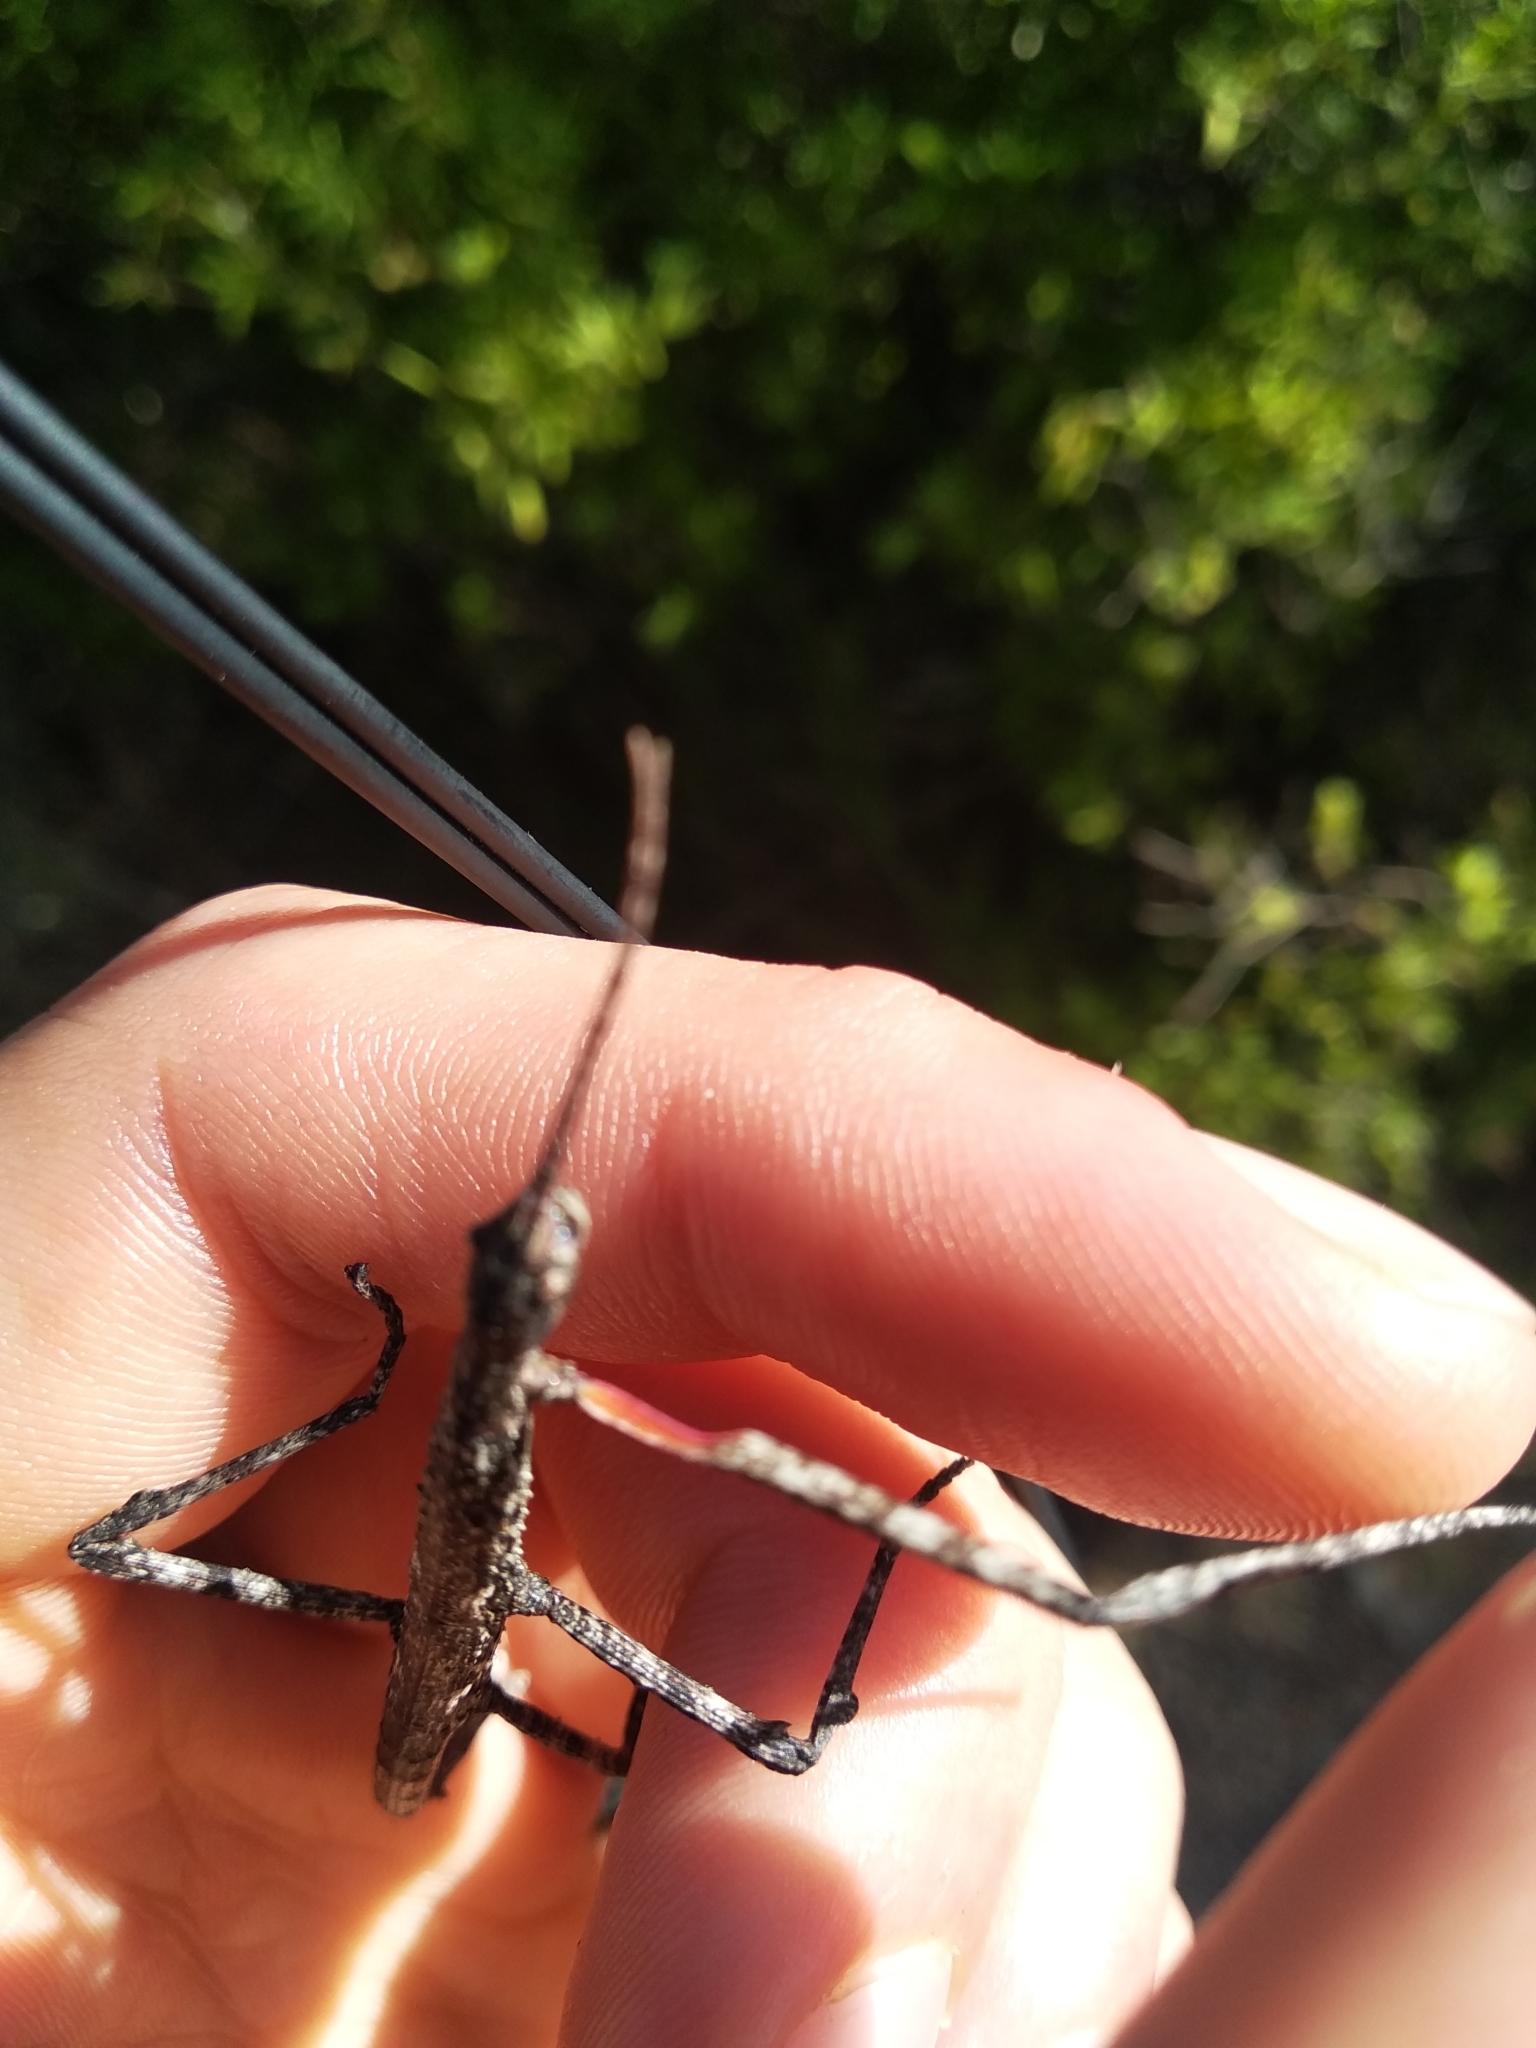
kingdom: Animalia
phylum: Arthropoda
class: Insecta
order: Phasmida
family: Phasmatidae
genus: Clitarchus
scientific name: Clitarchus hookeri
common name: Smooth stick insect
